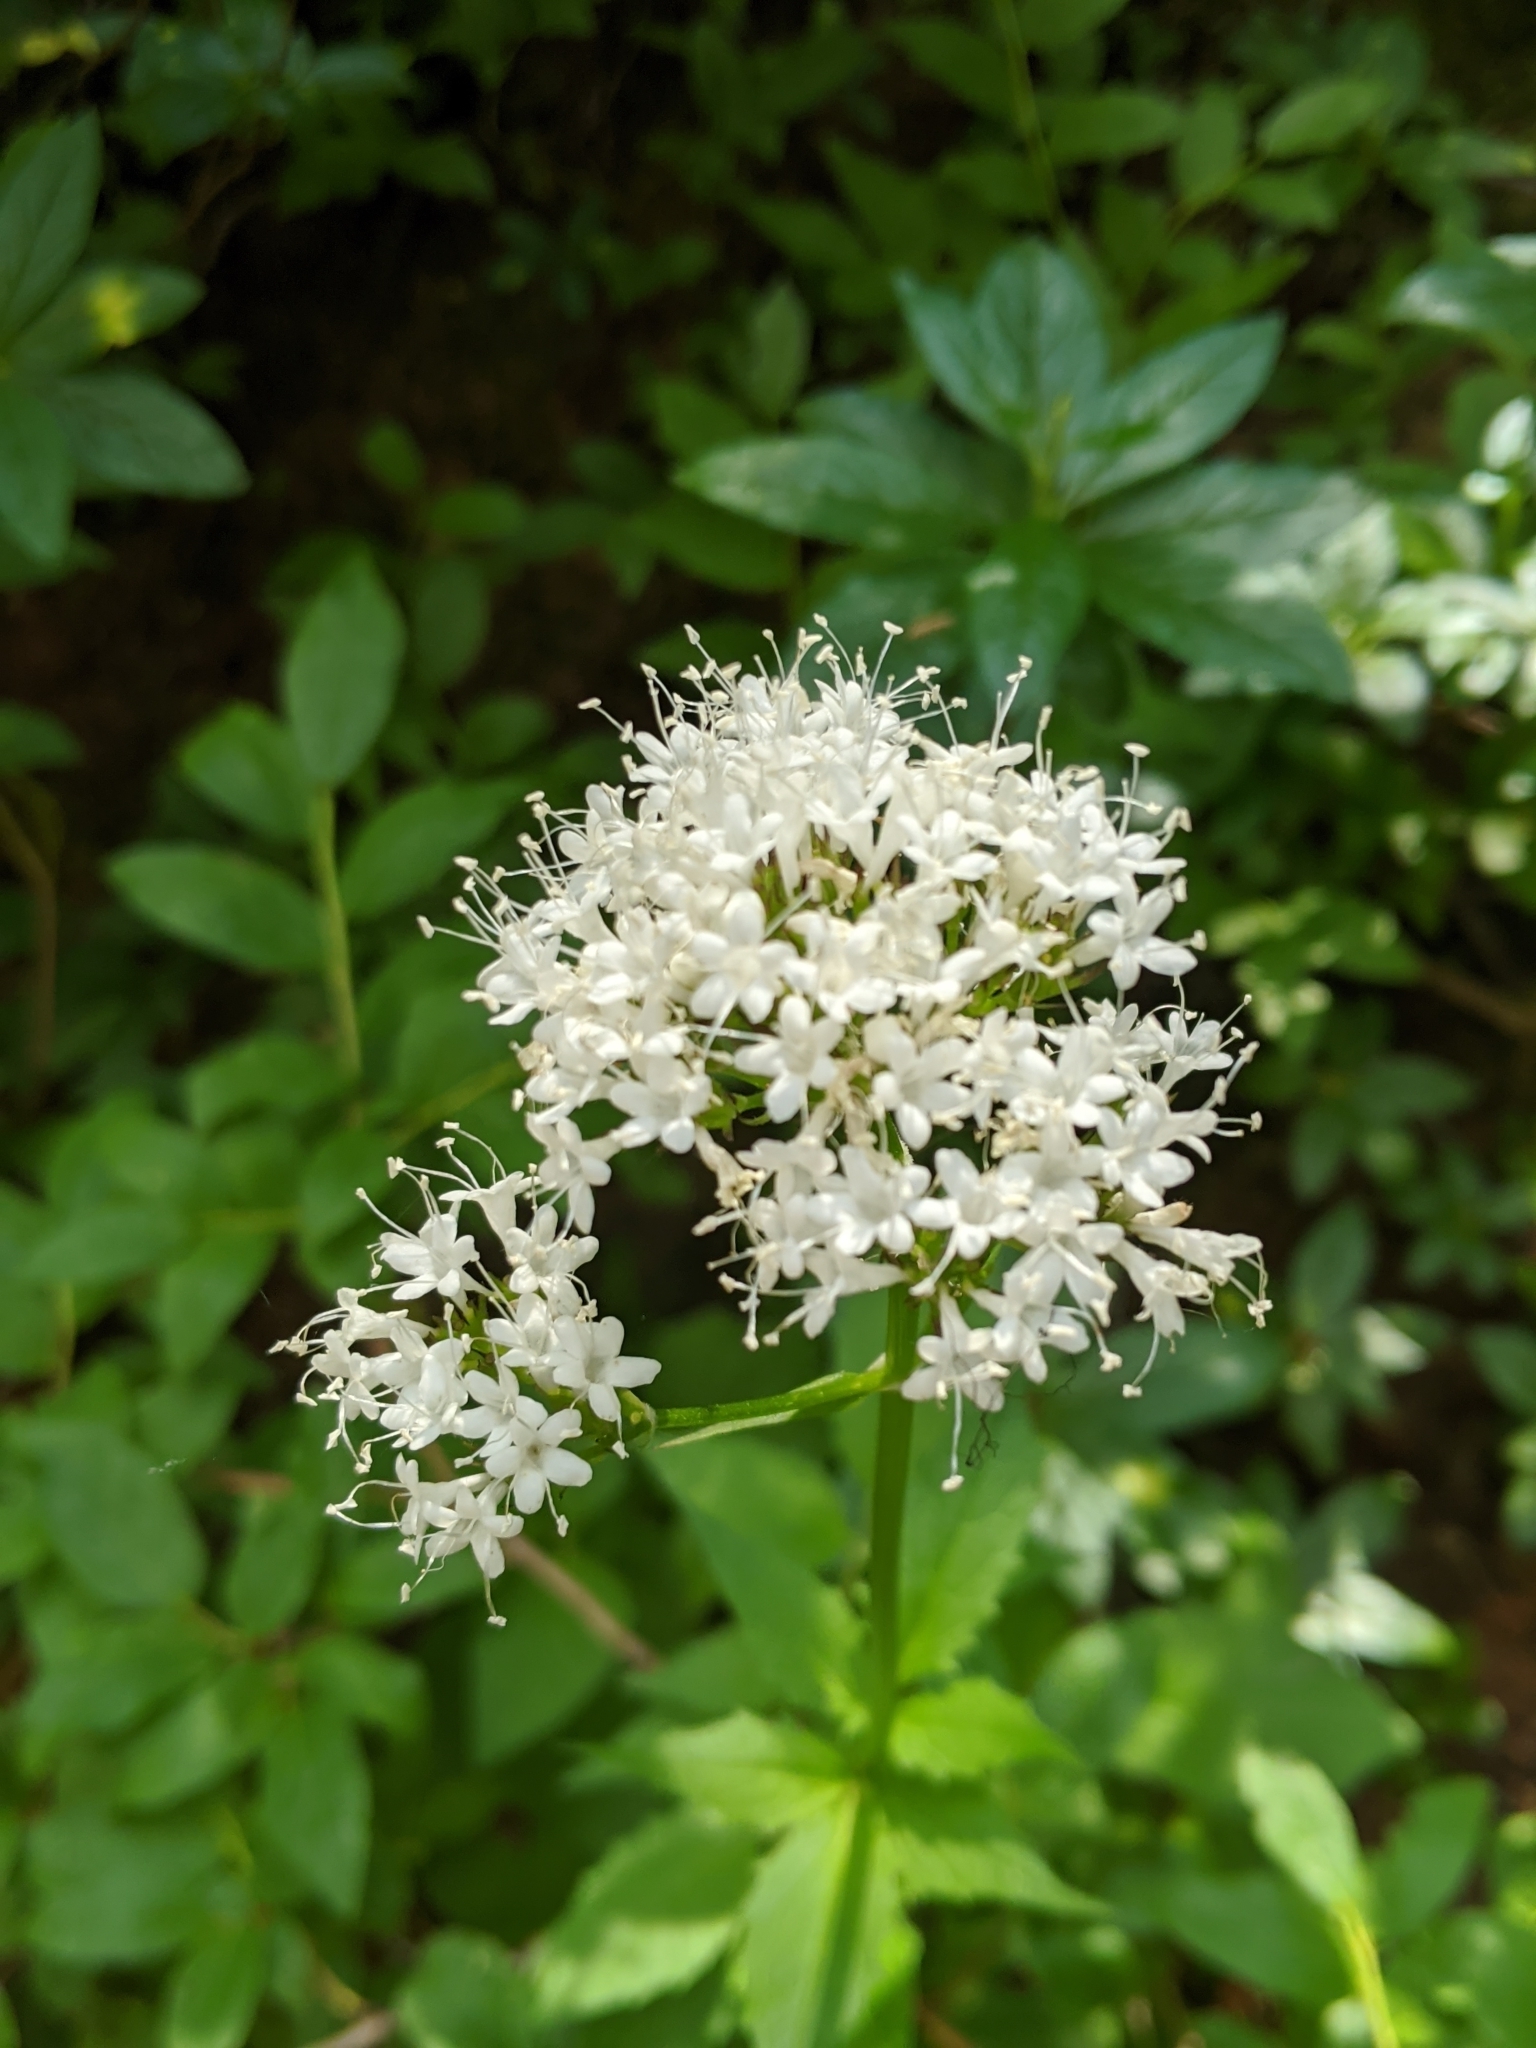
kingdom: Plantae
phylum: Tracheophyta
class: Magnoliopsida
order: Dipsacales
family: Caprifoliaceae
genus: Valeriana
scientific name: Valeriana sitchensis
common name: Pacific valerian
